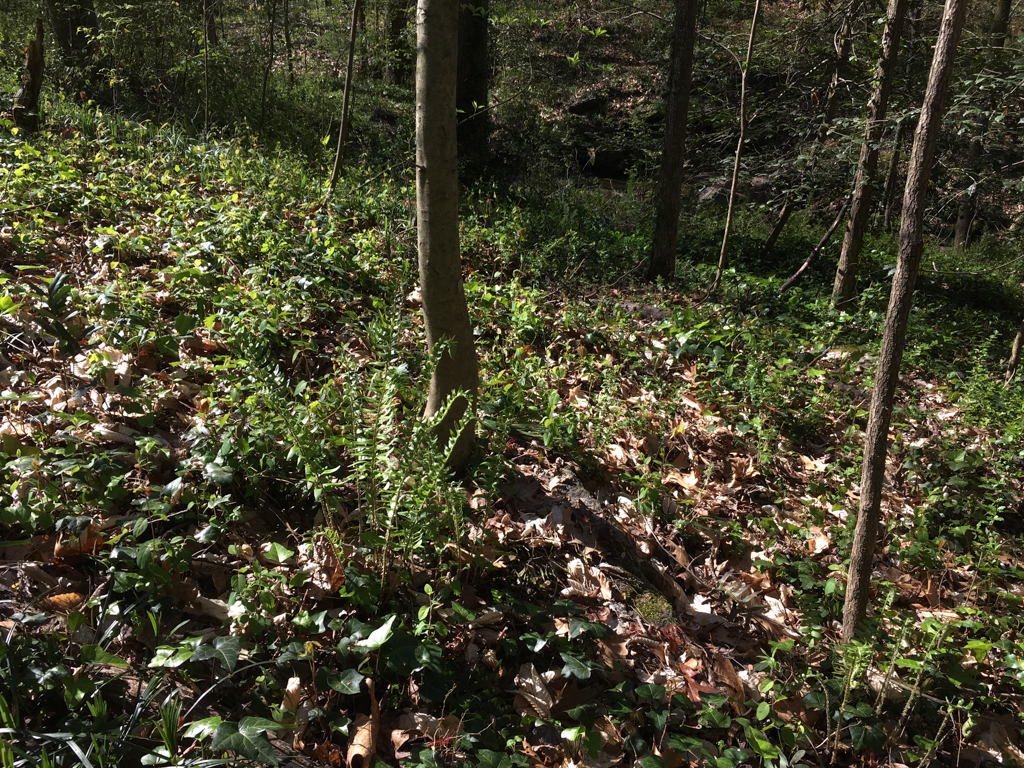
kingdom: Plantae
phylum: Tracheophyta
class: Polypodiopsida
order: Polypodiales
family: Dryopteridaceae
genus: Polystichum
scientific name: Polystichum acrostichoides
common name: Christmas fern
